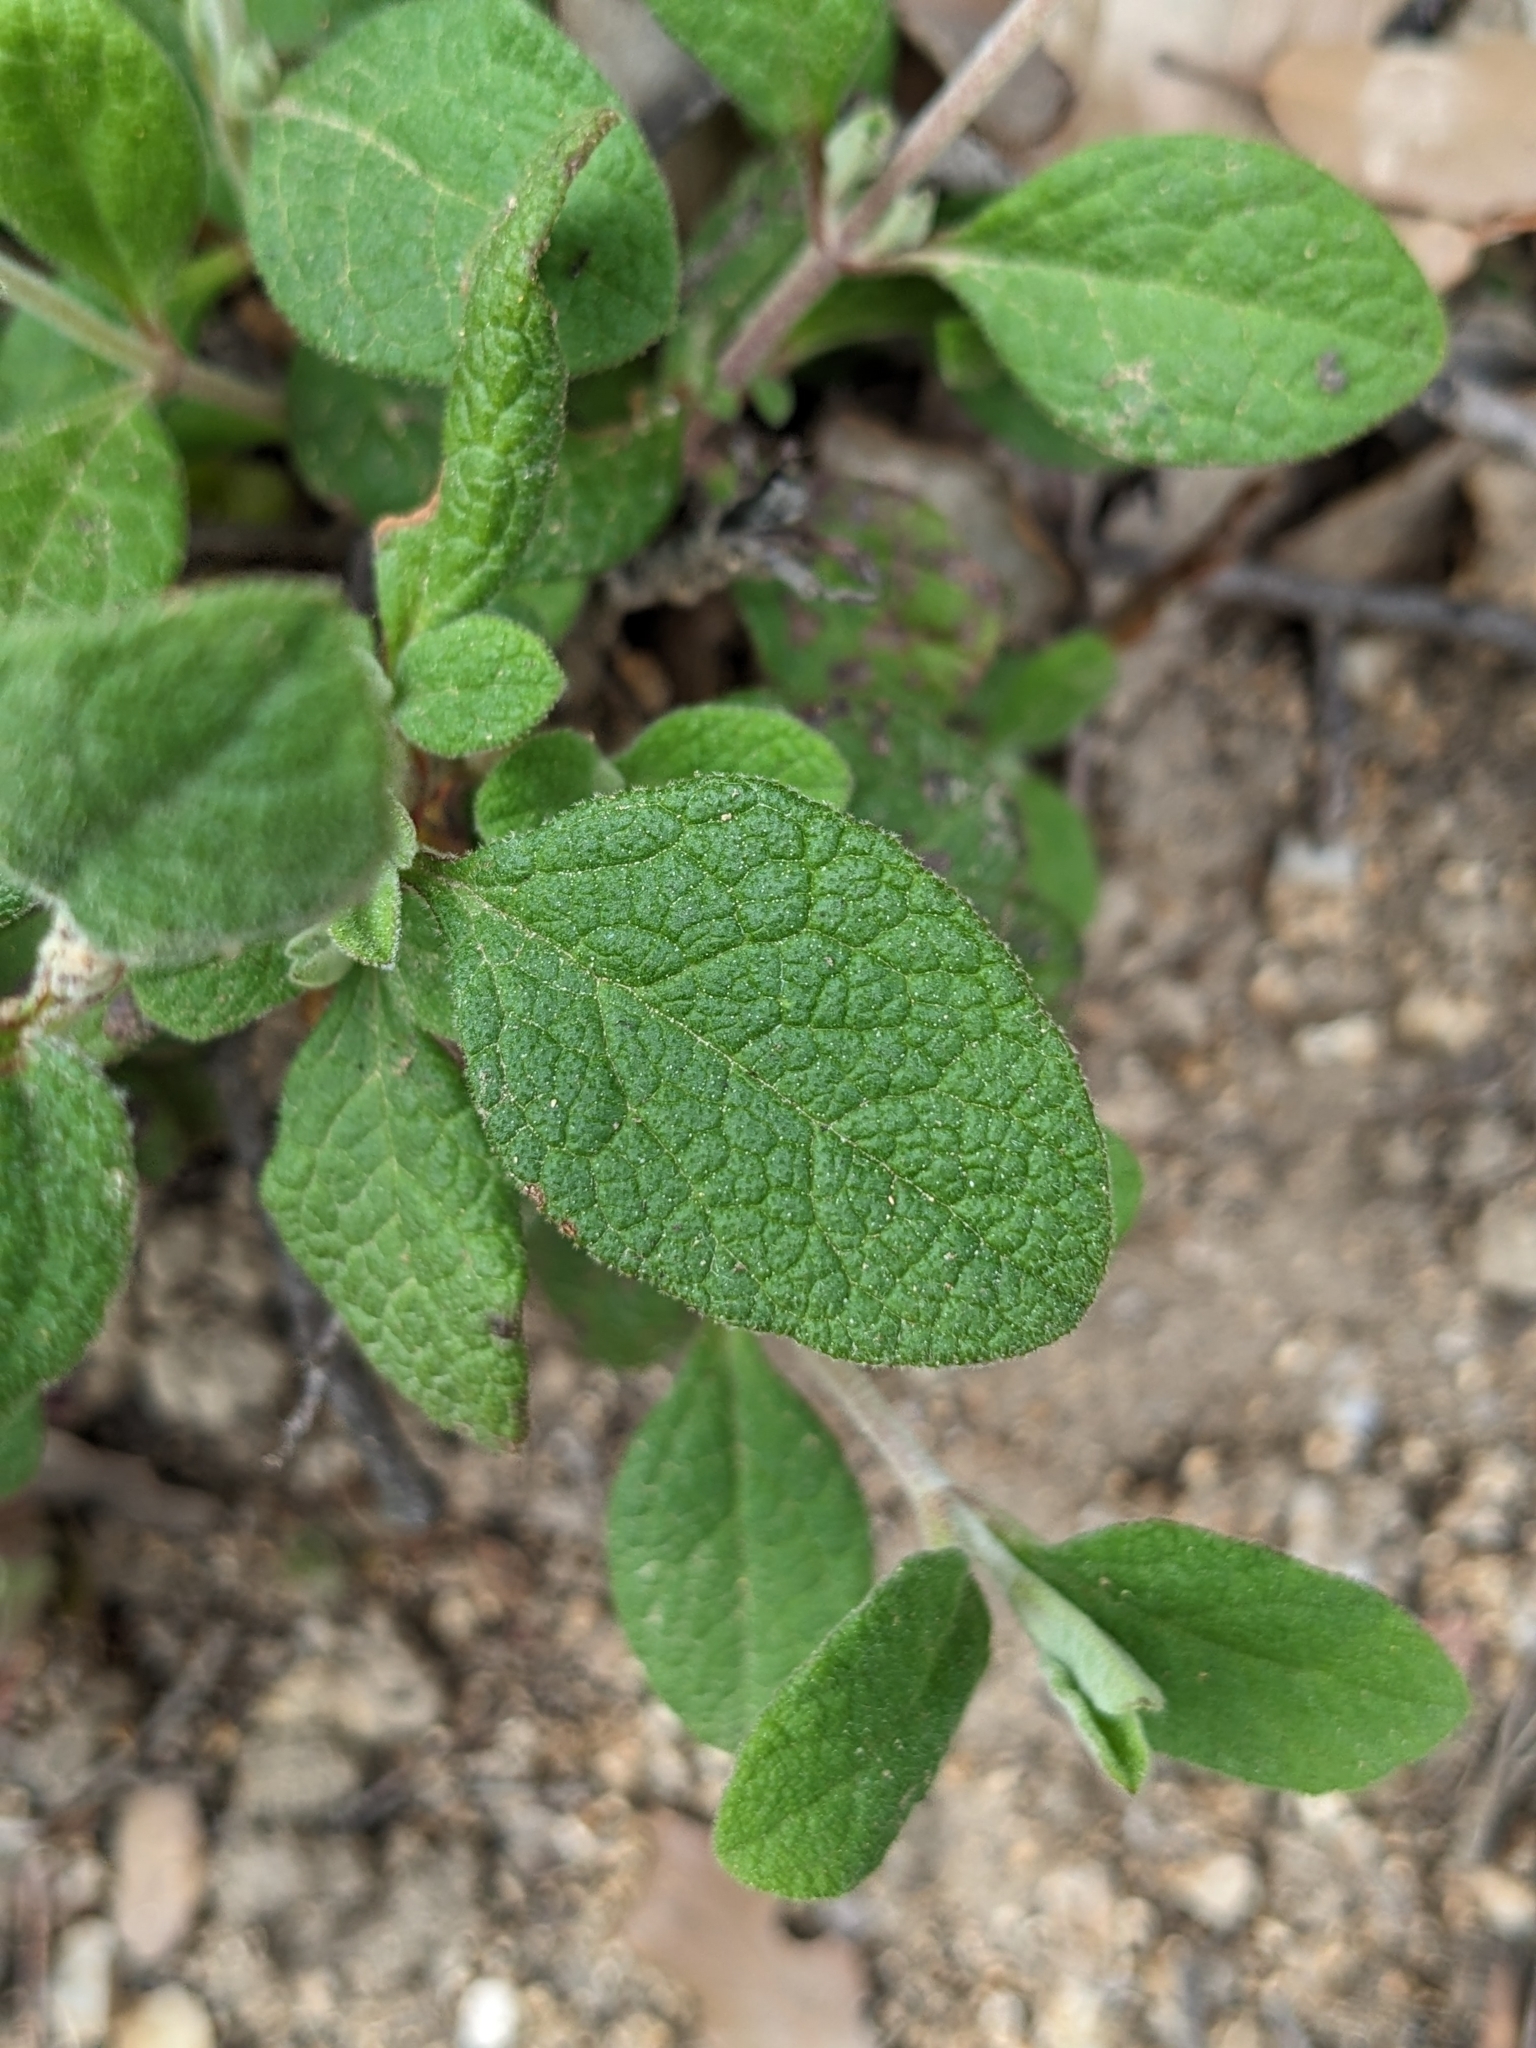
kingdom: Plantae
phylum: Tracheophyta
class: Magnoliopsida
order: Malvales
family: Cistaceae
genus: Cistus
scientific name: Cistus salviifolius
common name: Salvia cistus
